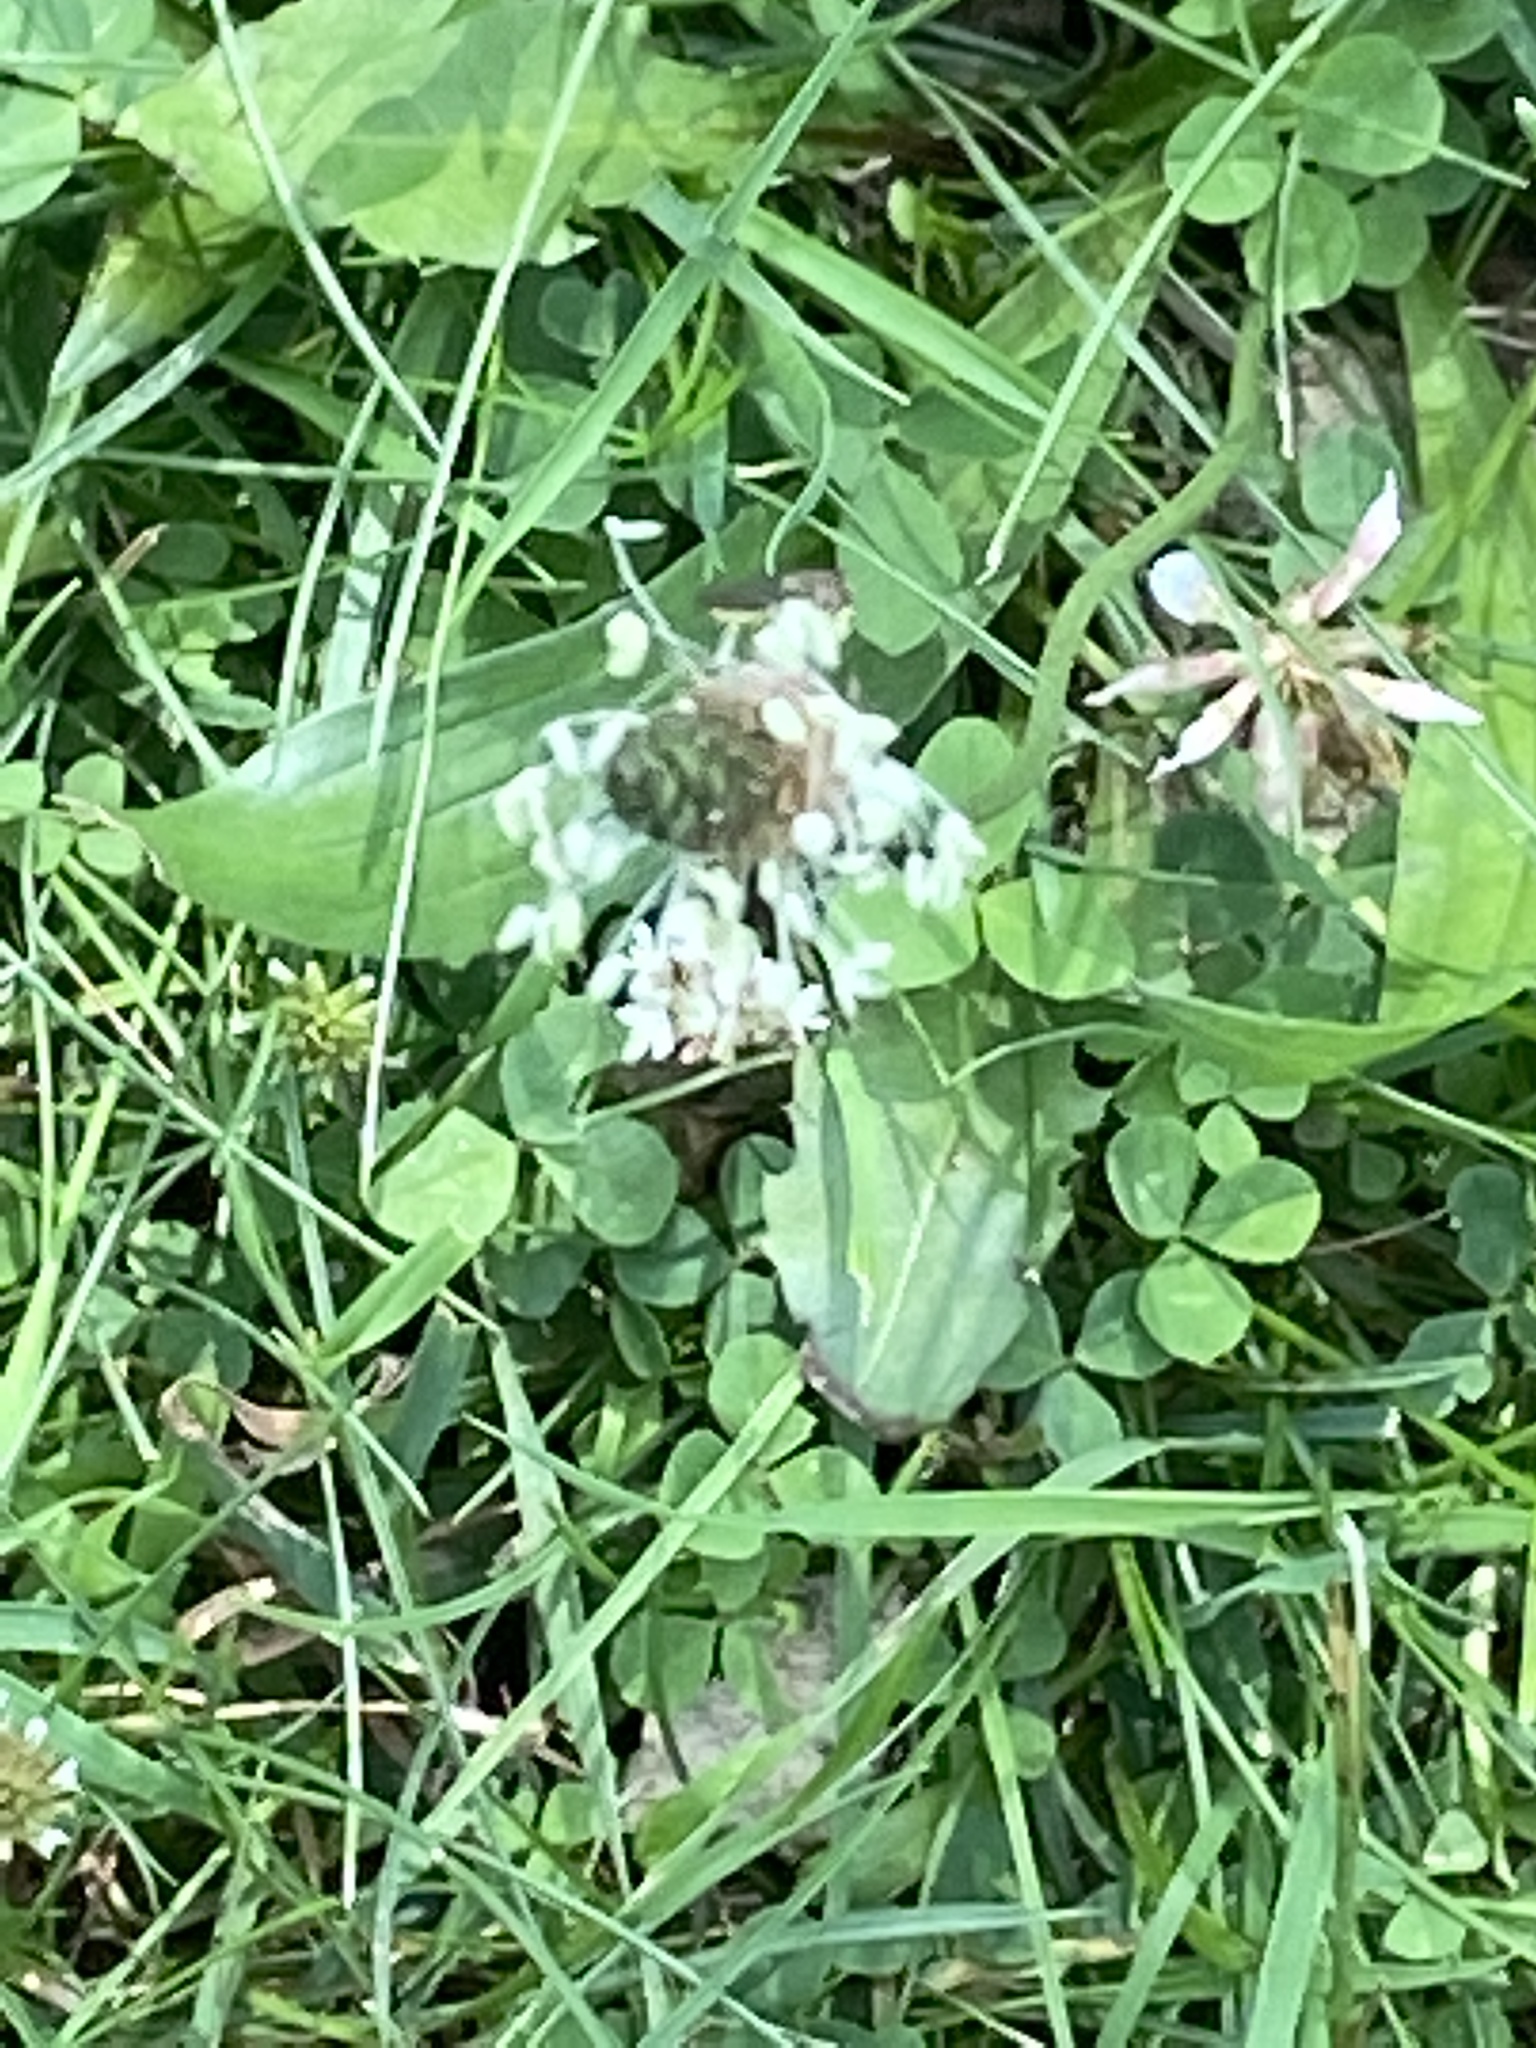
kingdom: Plantae
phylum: Tracheophyta
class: Magnoliopsida
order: Lamiales
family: Plantaginaceae
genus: Plantago
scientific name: Plantago lanceolata
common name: Ribwort plantain
